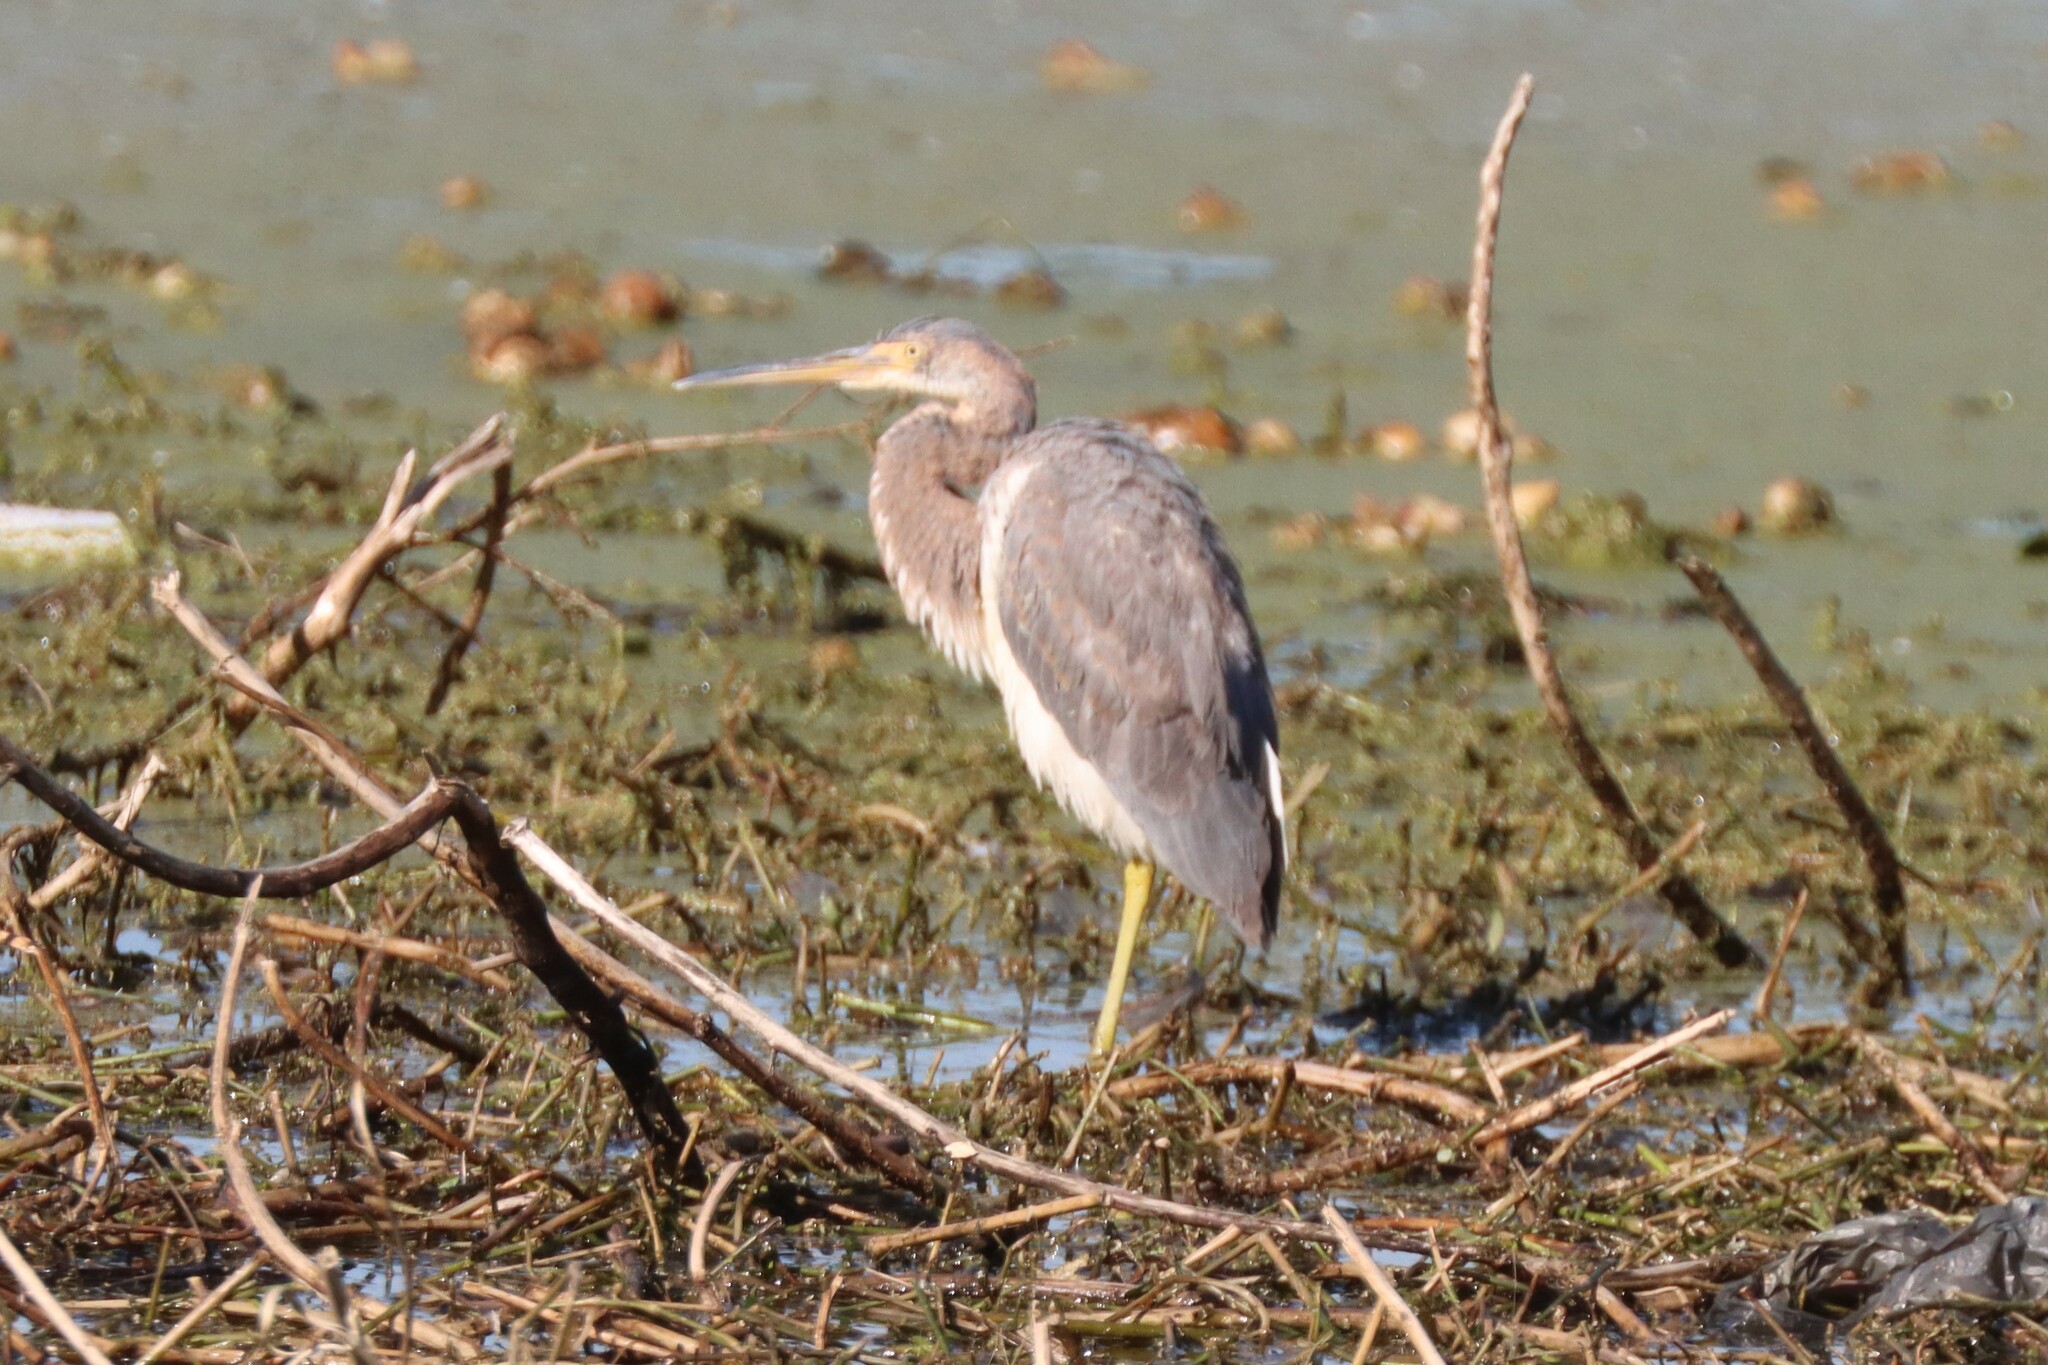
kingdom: Animalia
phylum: Chordata
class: Aves
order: Pelecaniformes
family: Ardeidae
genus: Egretta
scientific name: Egretta tricolor
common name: Tricolored heron
